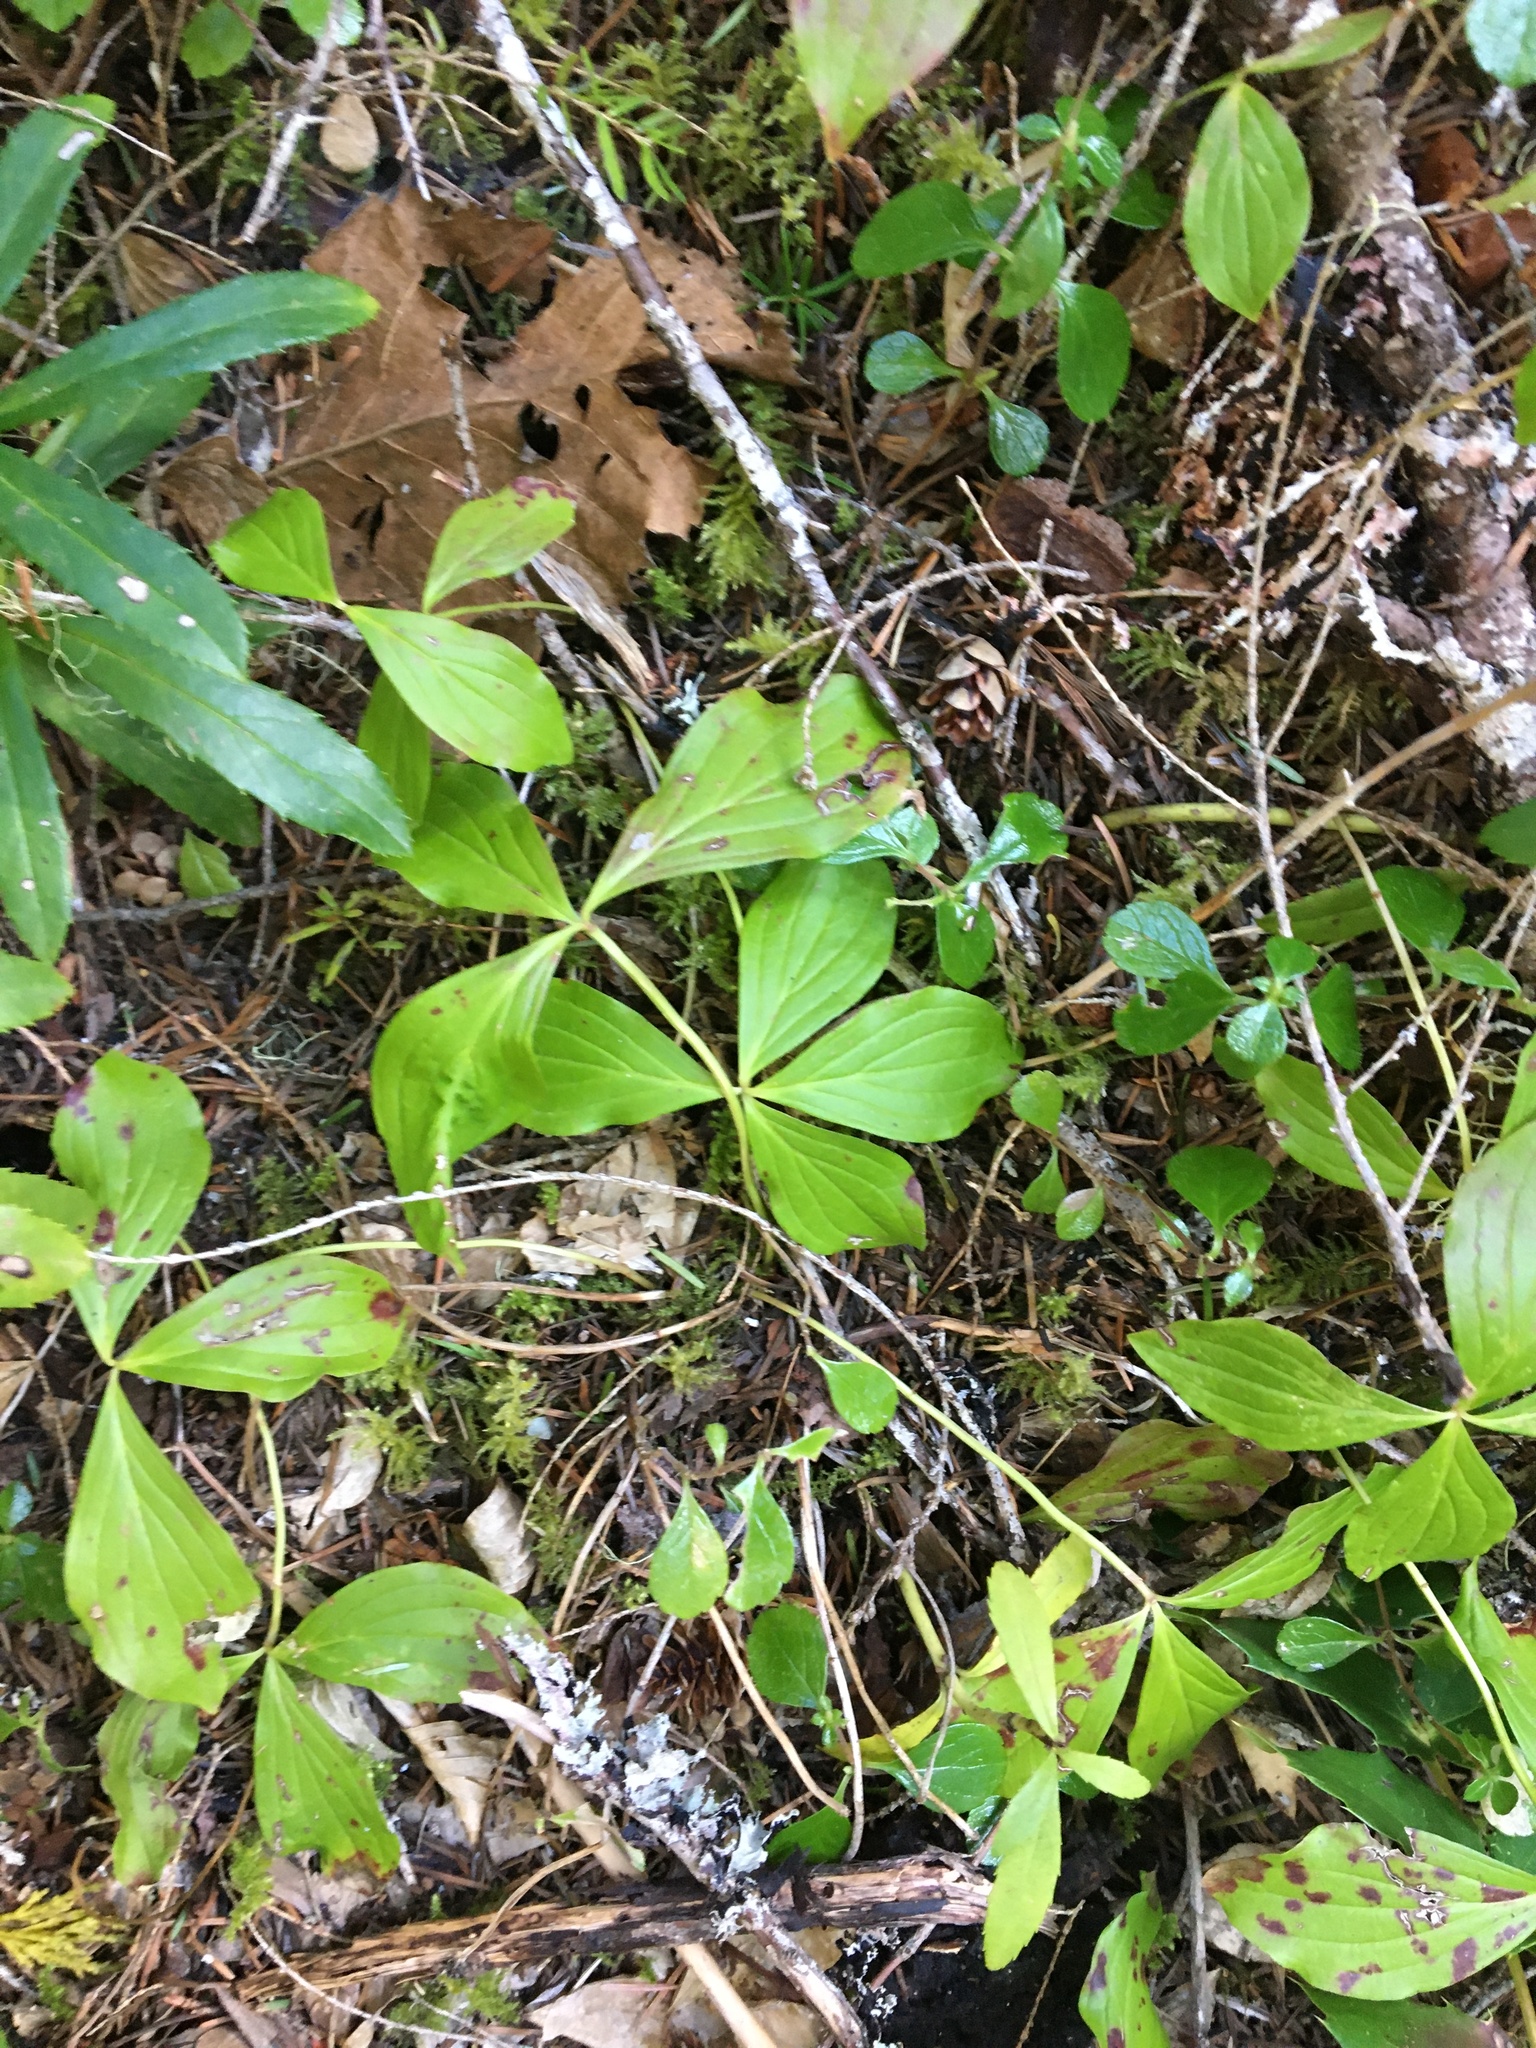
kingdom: Plantae
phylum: Tracheophyta
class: Magnoliopsida
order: Cornales
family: Cornaceae
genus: Cornus
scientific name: Cornus unalaschkensis
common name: Alaska bunchberry
